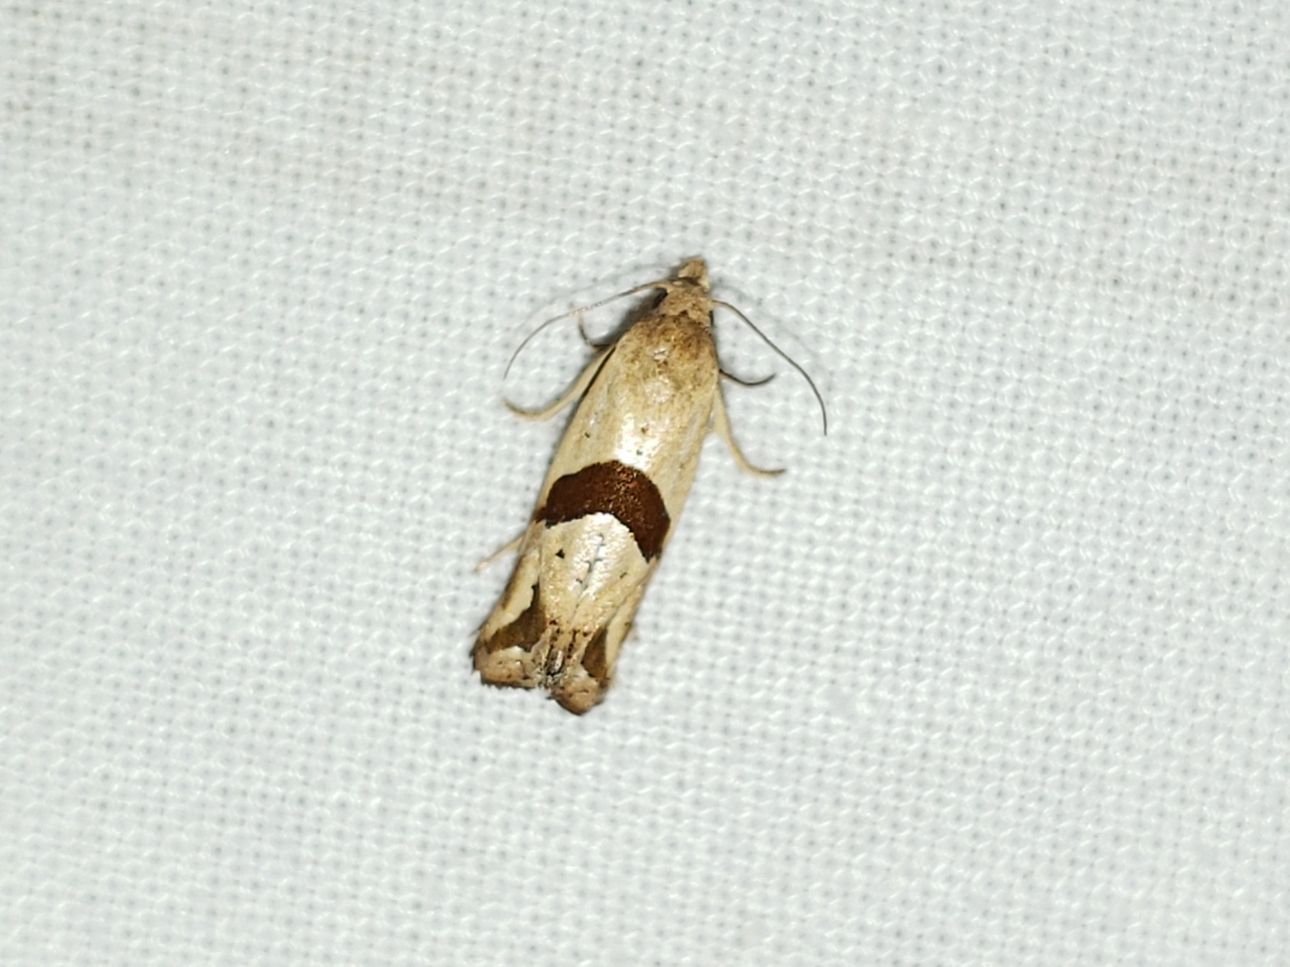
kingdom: Animalia
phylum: Arthropoda
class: Insecta
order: Lepidoptera
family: Tortricidae
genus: Eugnosta
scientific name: Eugnosta sartana
